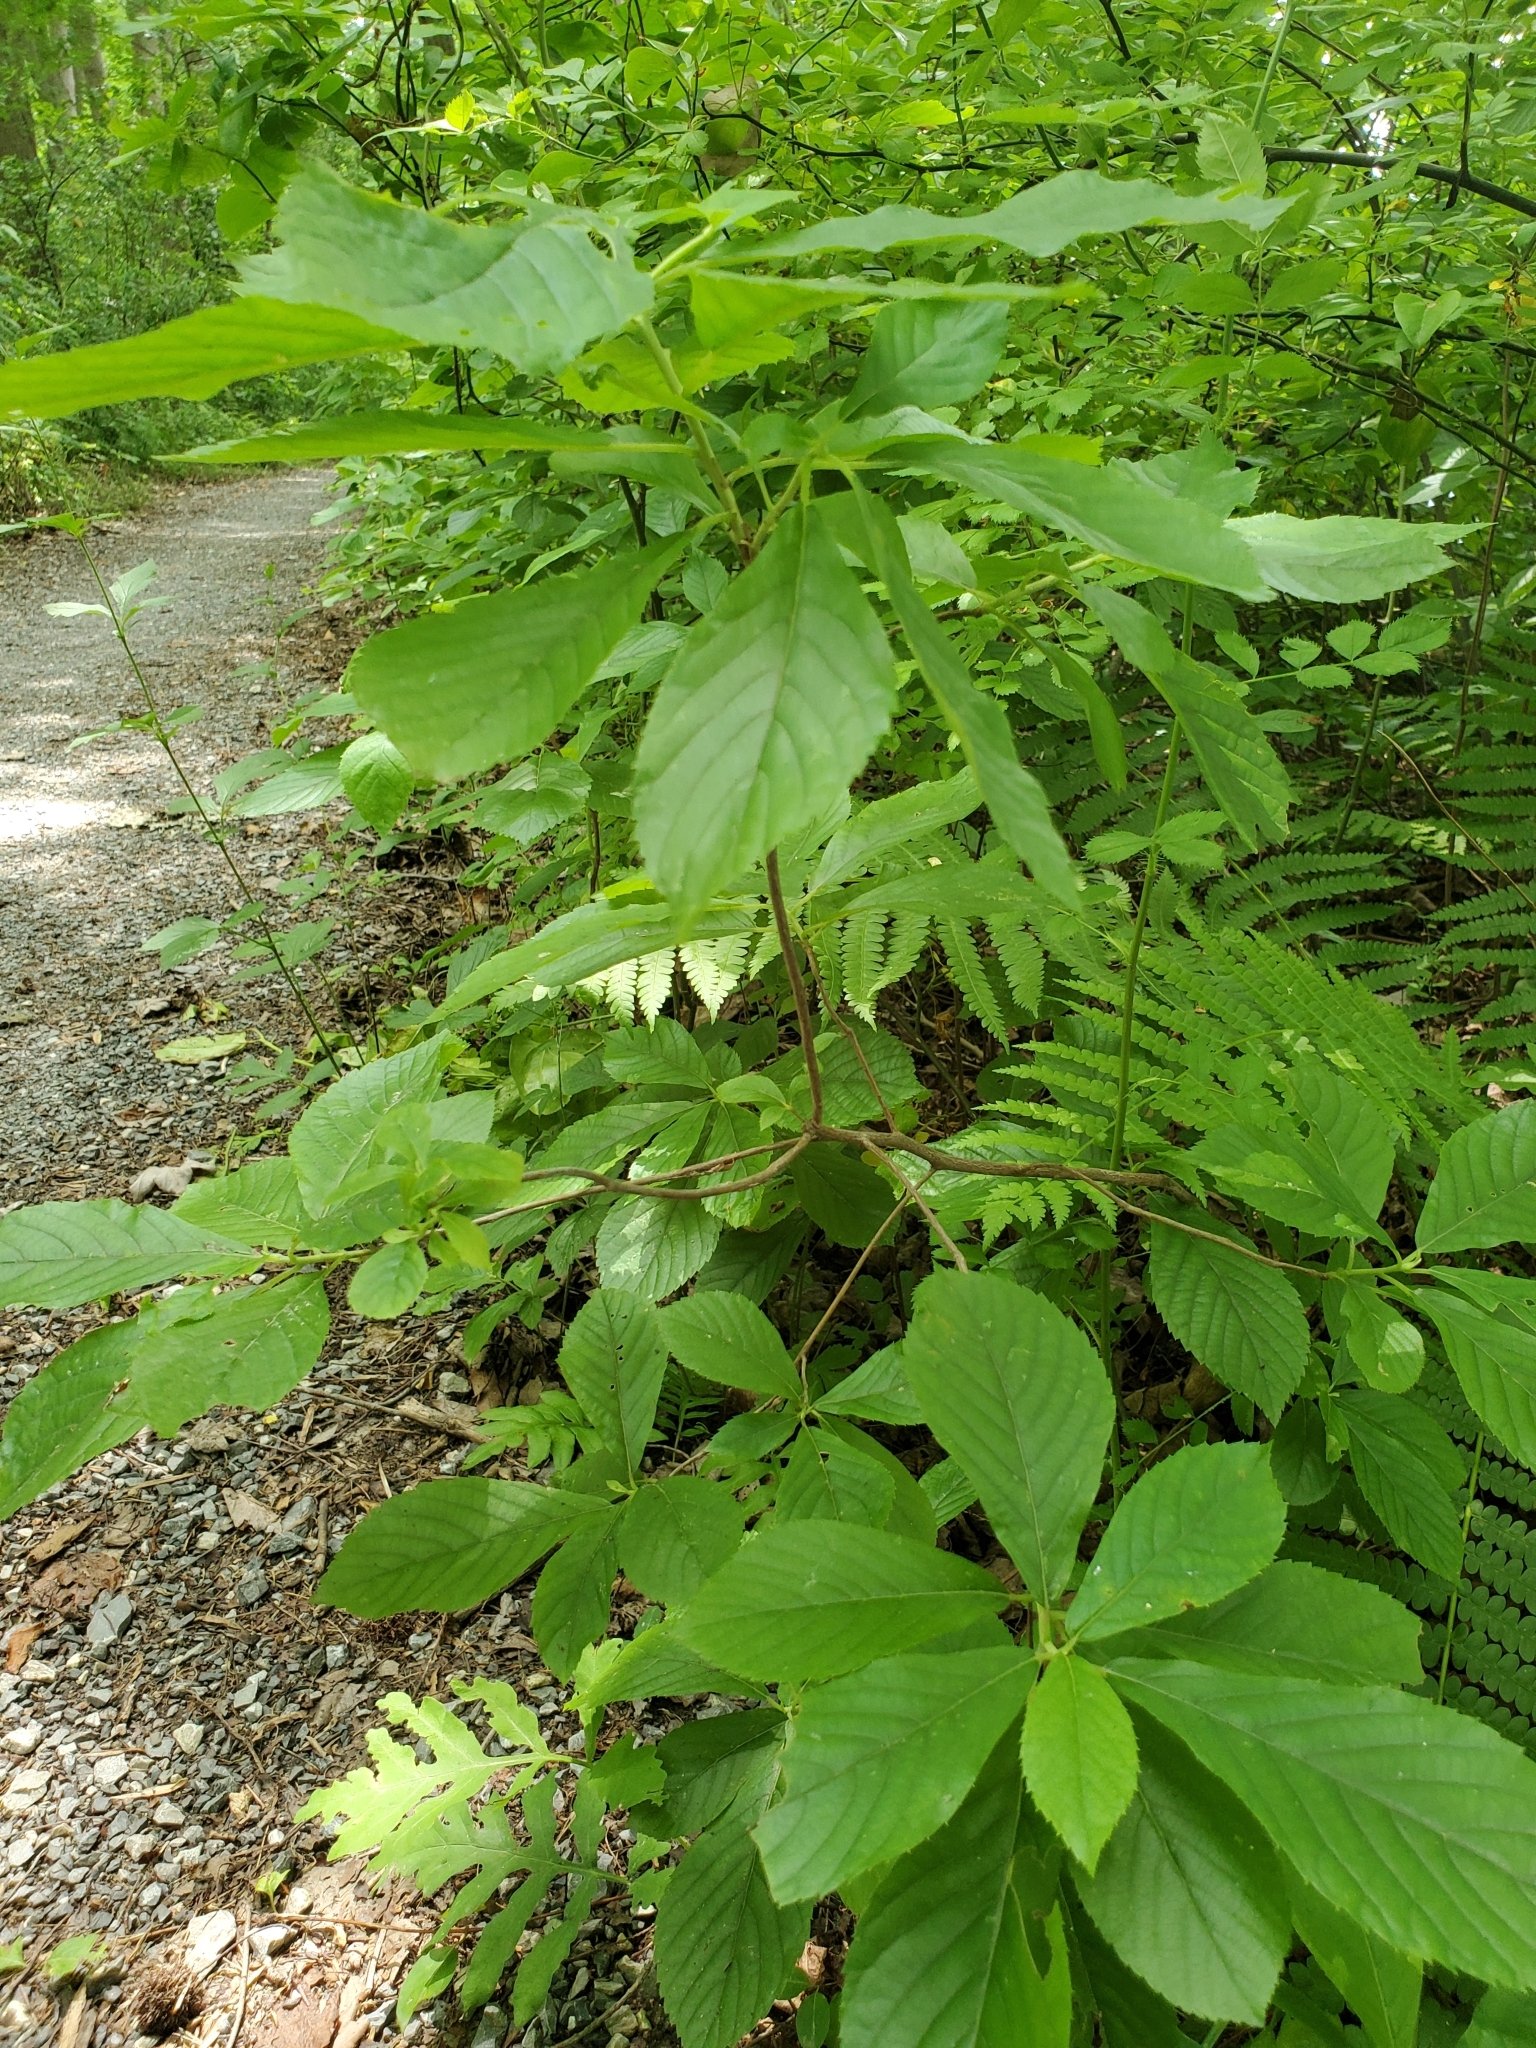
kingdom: Plantae
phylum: Tracheophyta
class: Magnoliopsida
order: Ericales
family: Clethraceae
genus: Clethra
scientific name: Clethra alnifolia
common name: Sweet pepperbush
